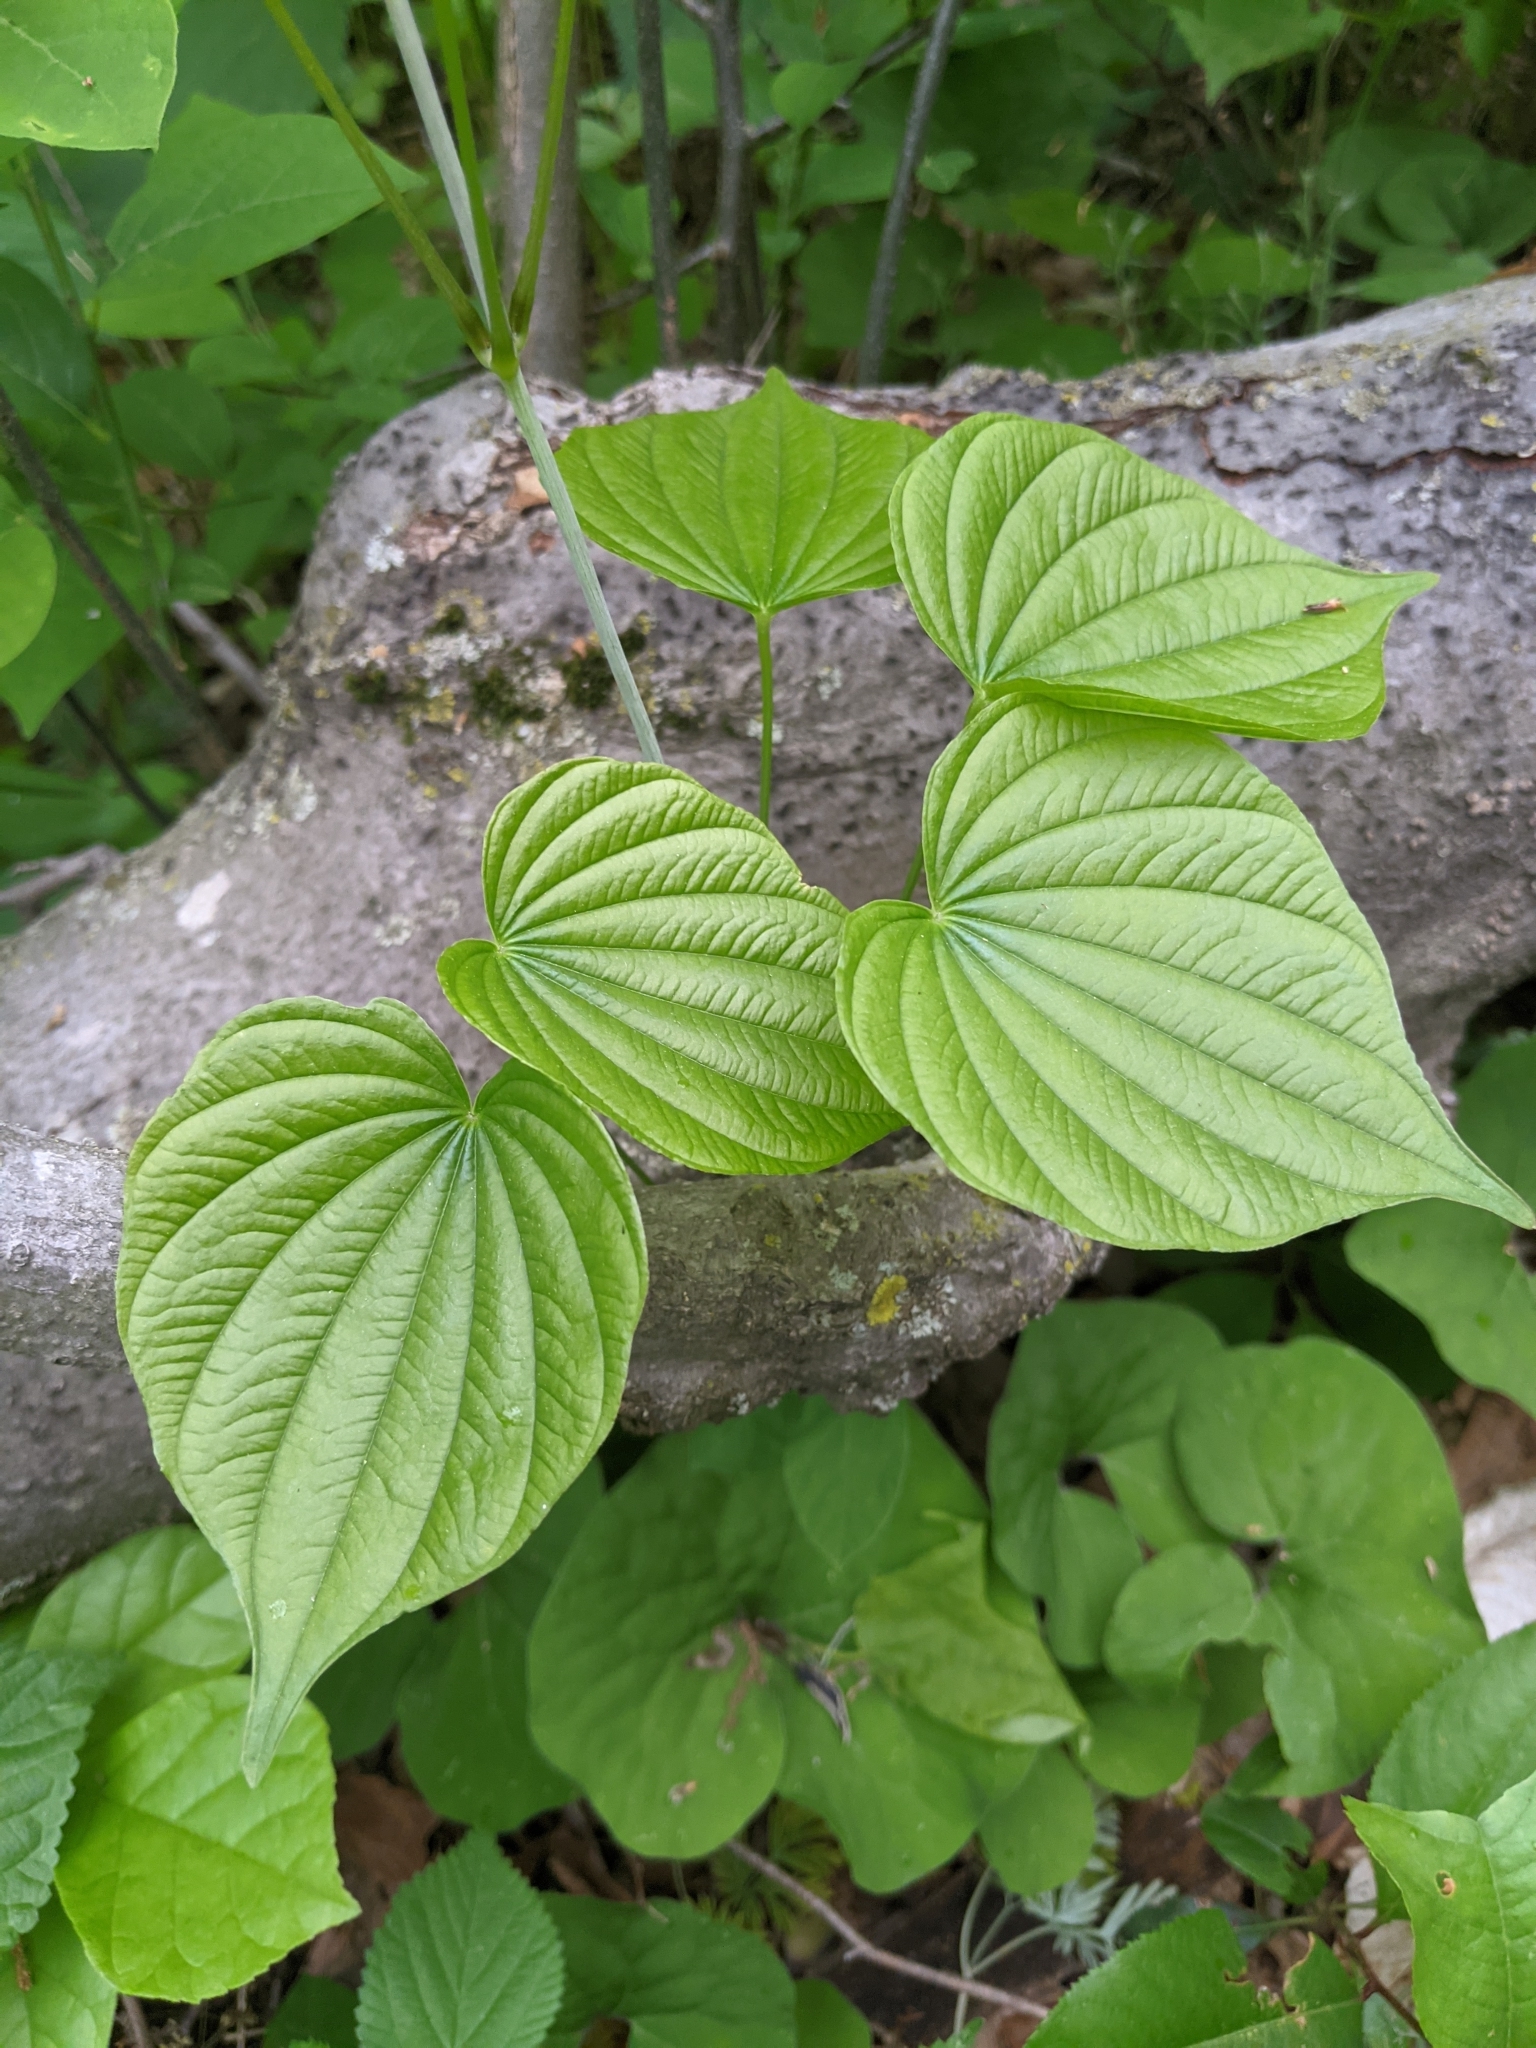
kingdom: Plantae
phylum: Tracheophyta
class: Liliopsida
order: Dioscoreales
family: Dioscoreaceae
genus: Dioscorea
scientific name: Dioscorea villosa
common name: Wild yam
